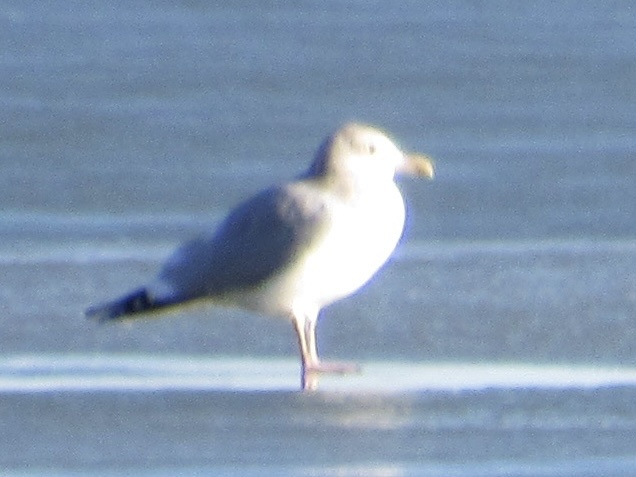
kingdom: Animalia
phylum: Chordata
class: Aves
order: Charadriiformes
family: Laridae
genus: Larus
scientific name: Larus argentatus
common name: Herring gull
